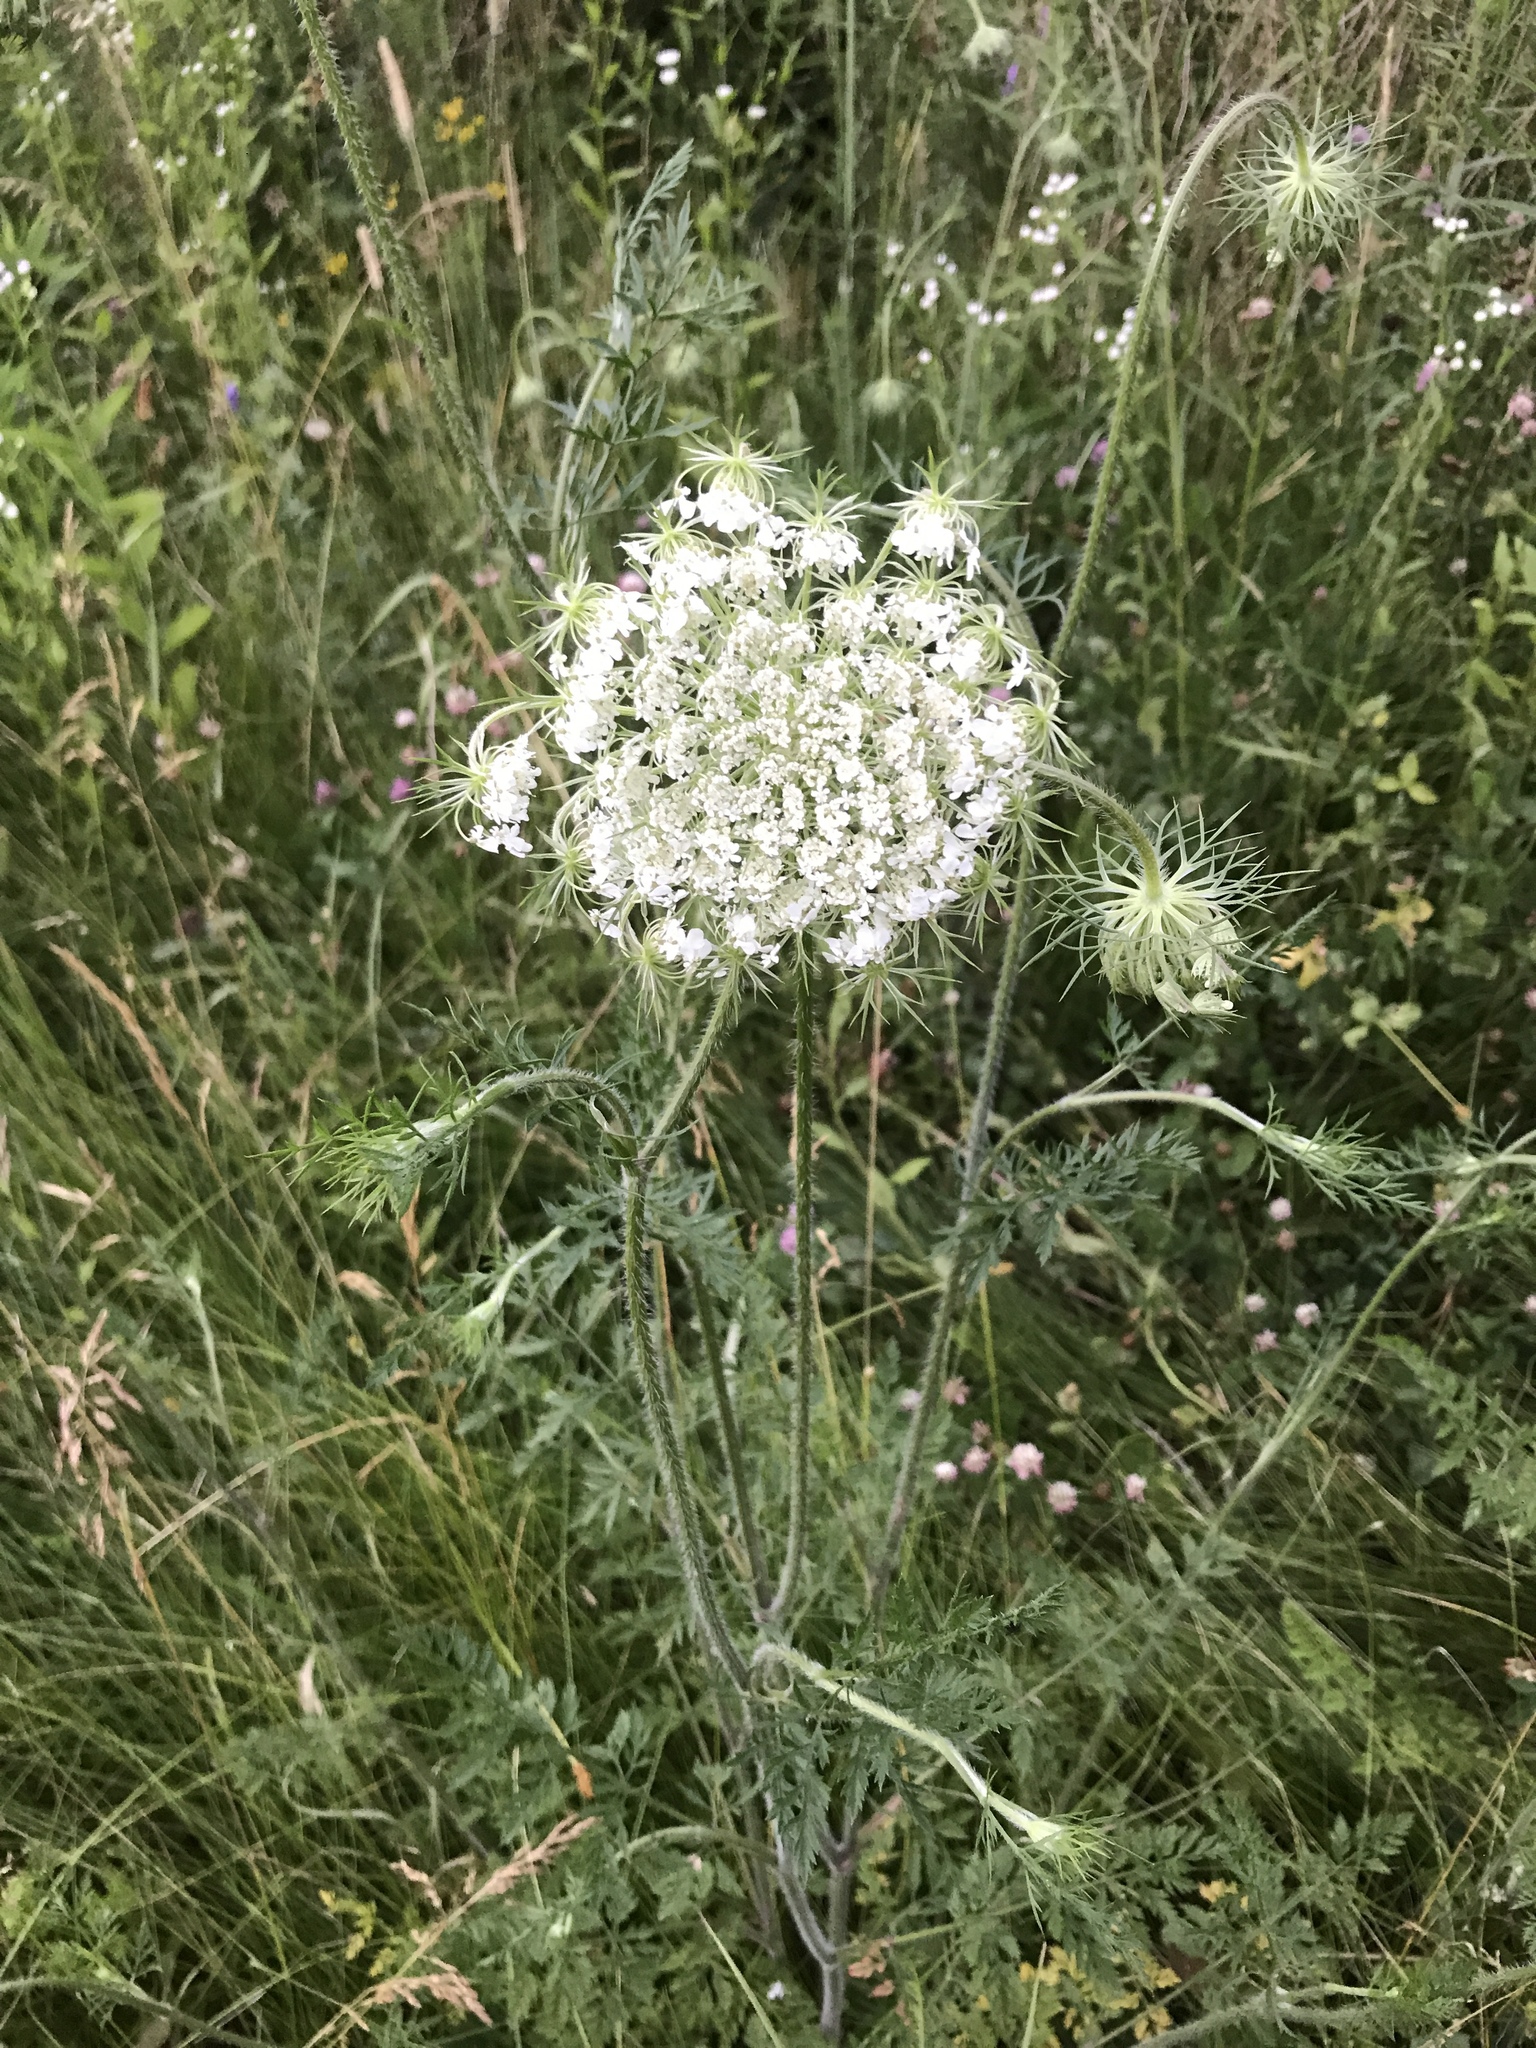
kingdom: Plantae
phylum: Tracheophyta
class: Magnoliopsida
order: Apiales
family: Apiaceae
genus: Daucus
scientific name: Daucus carota
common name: Wild carrot
